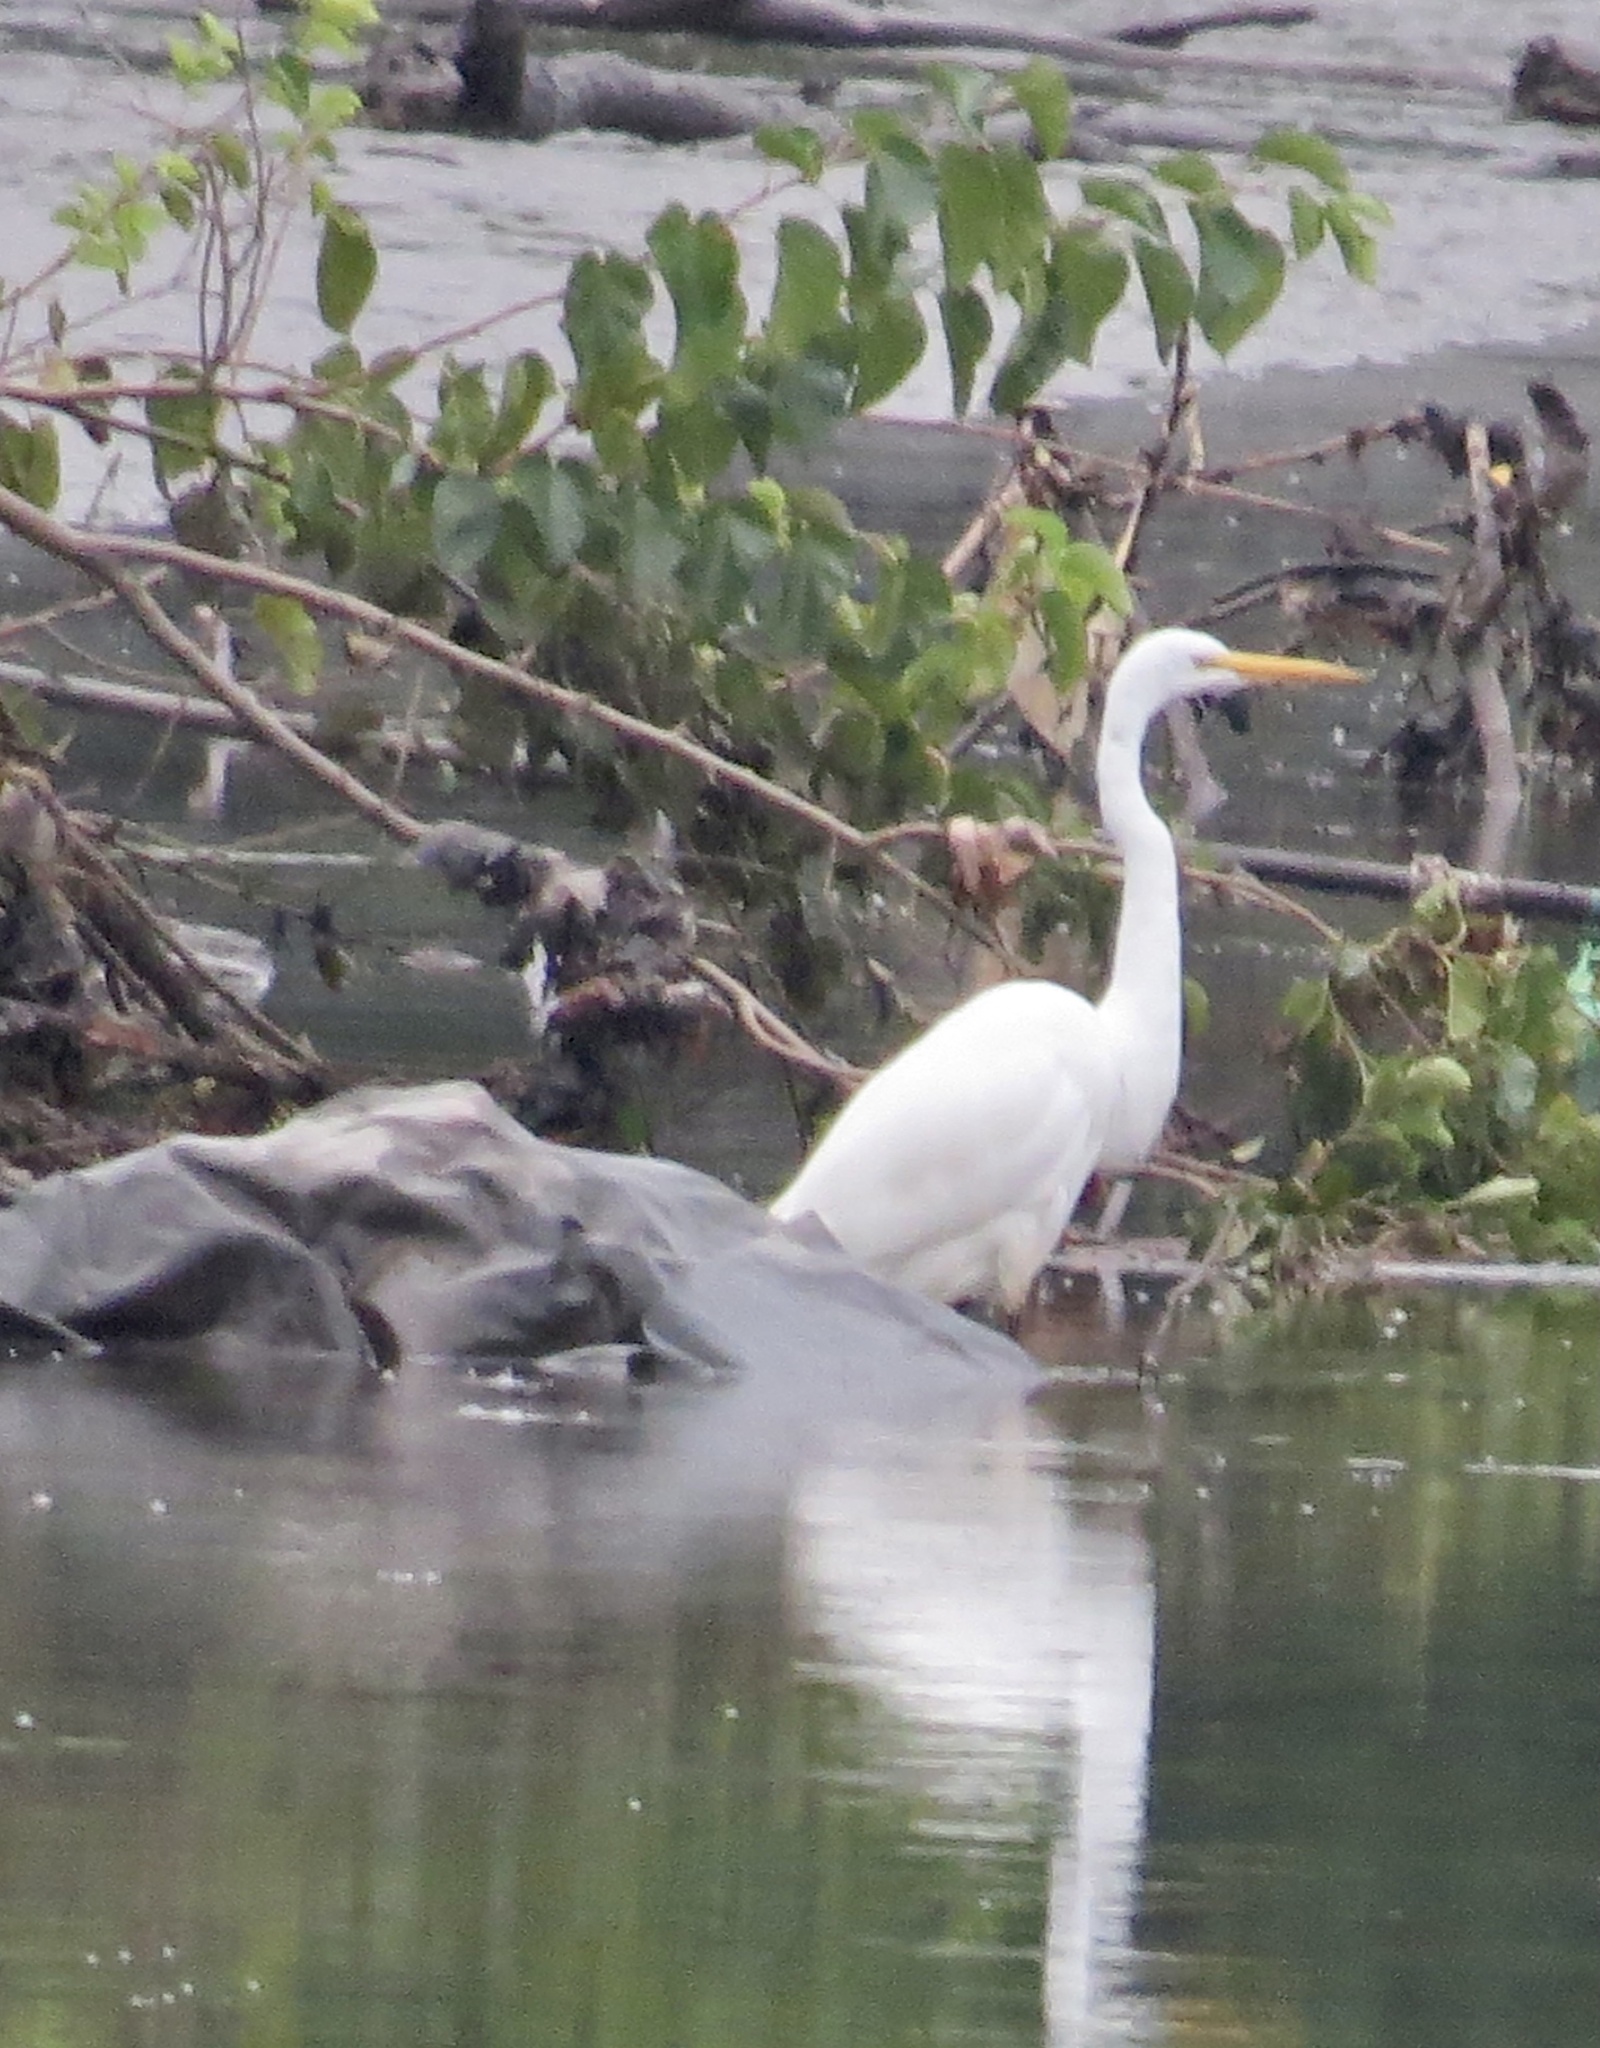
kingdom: Animalia
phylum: Chordata
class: Aves
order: Pelecaniformes
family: Ardeidae
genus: Ardea
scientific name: Ardea alba
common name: Great egret
